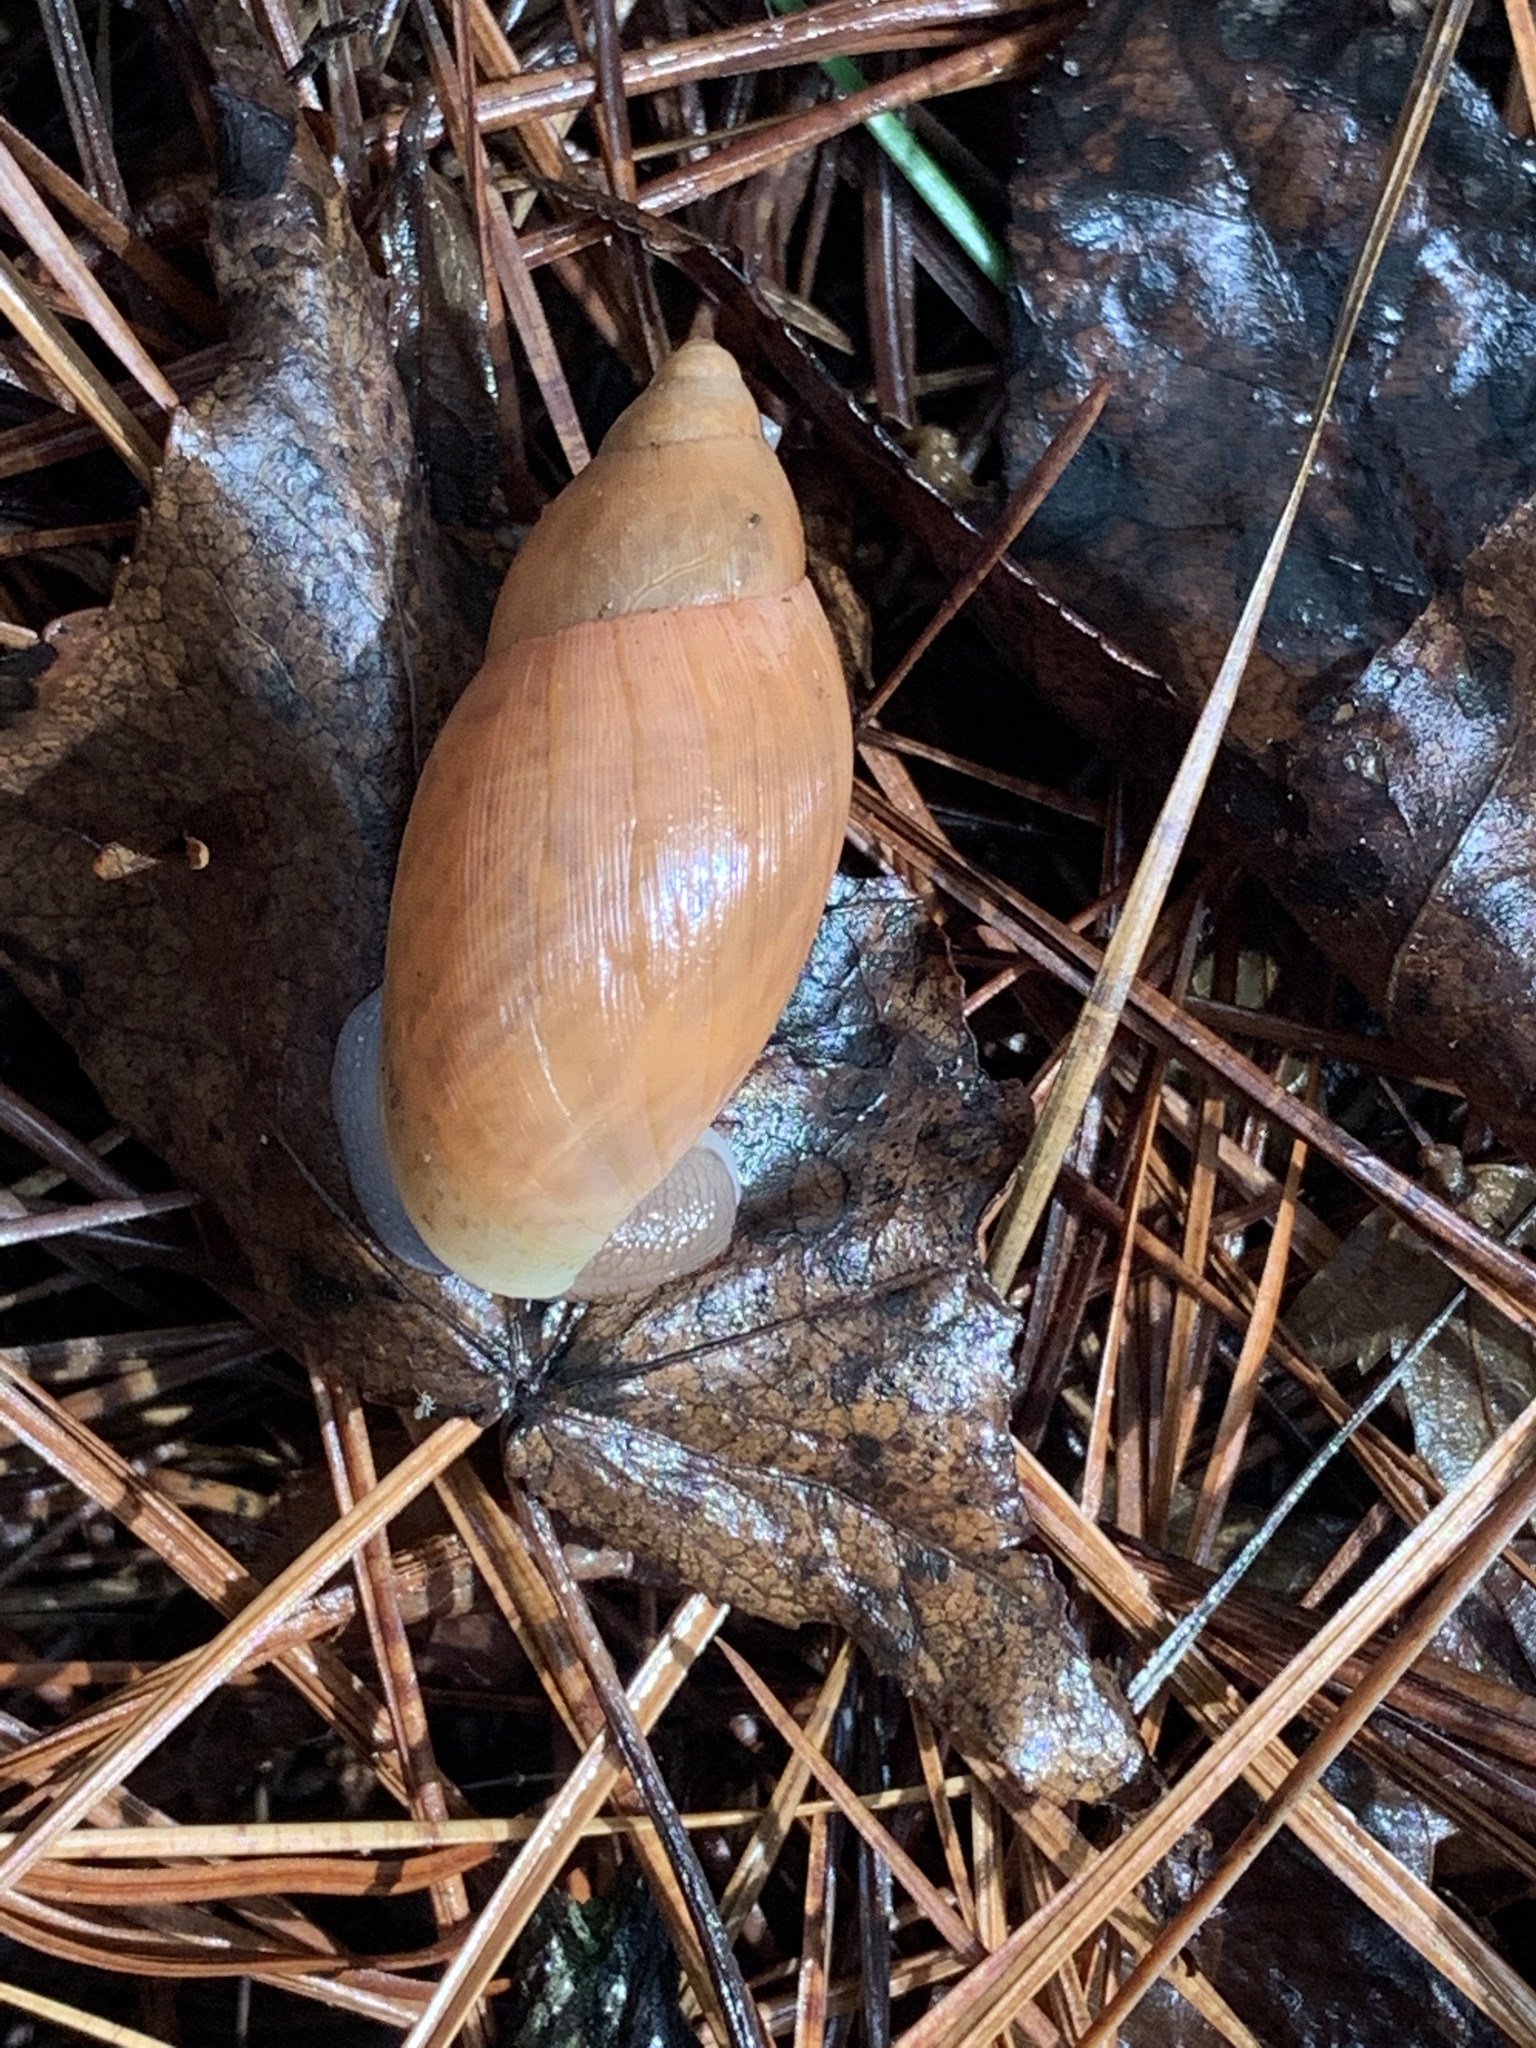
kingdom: Animalia
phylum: Mollusca
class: Gastropoda
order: Stylommatophora
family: Spiraxidae
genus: Euglandina
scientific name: Euglandina rosea
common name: Rosy wolfsnail
